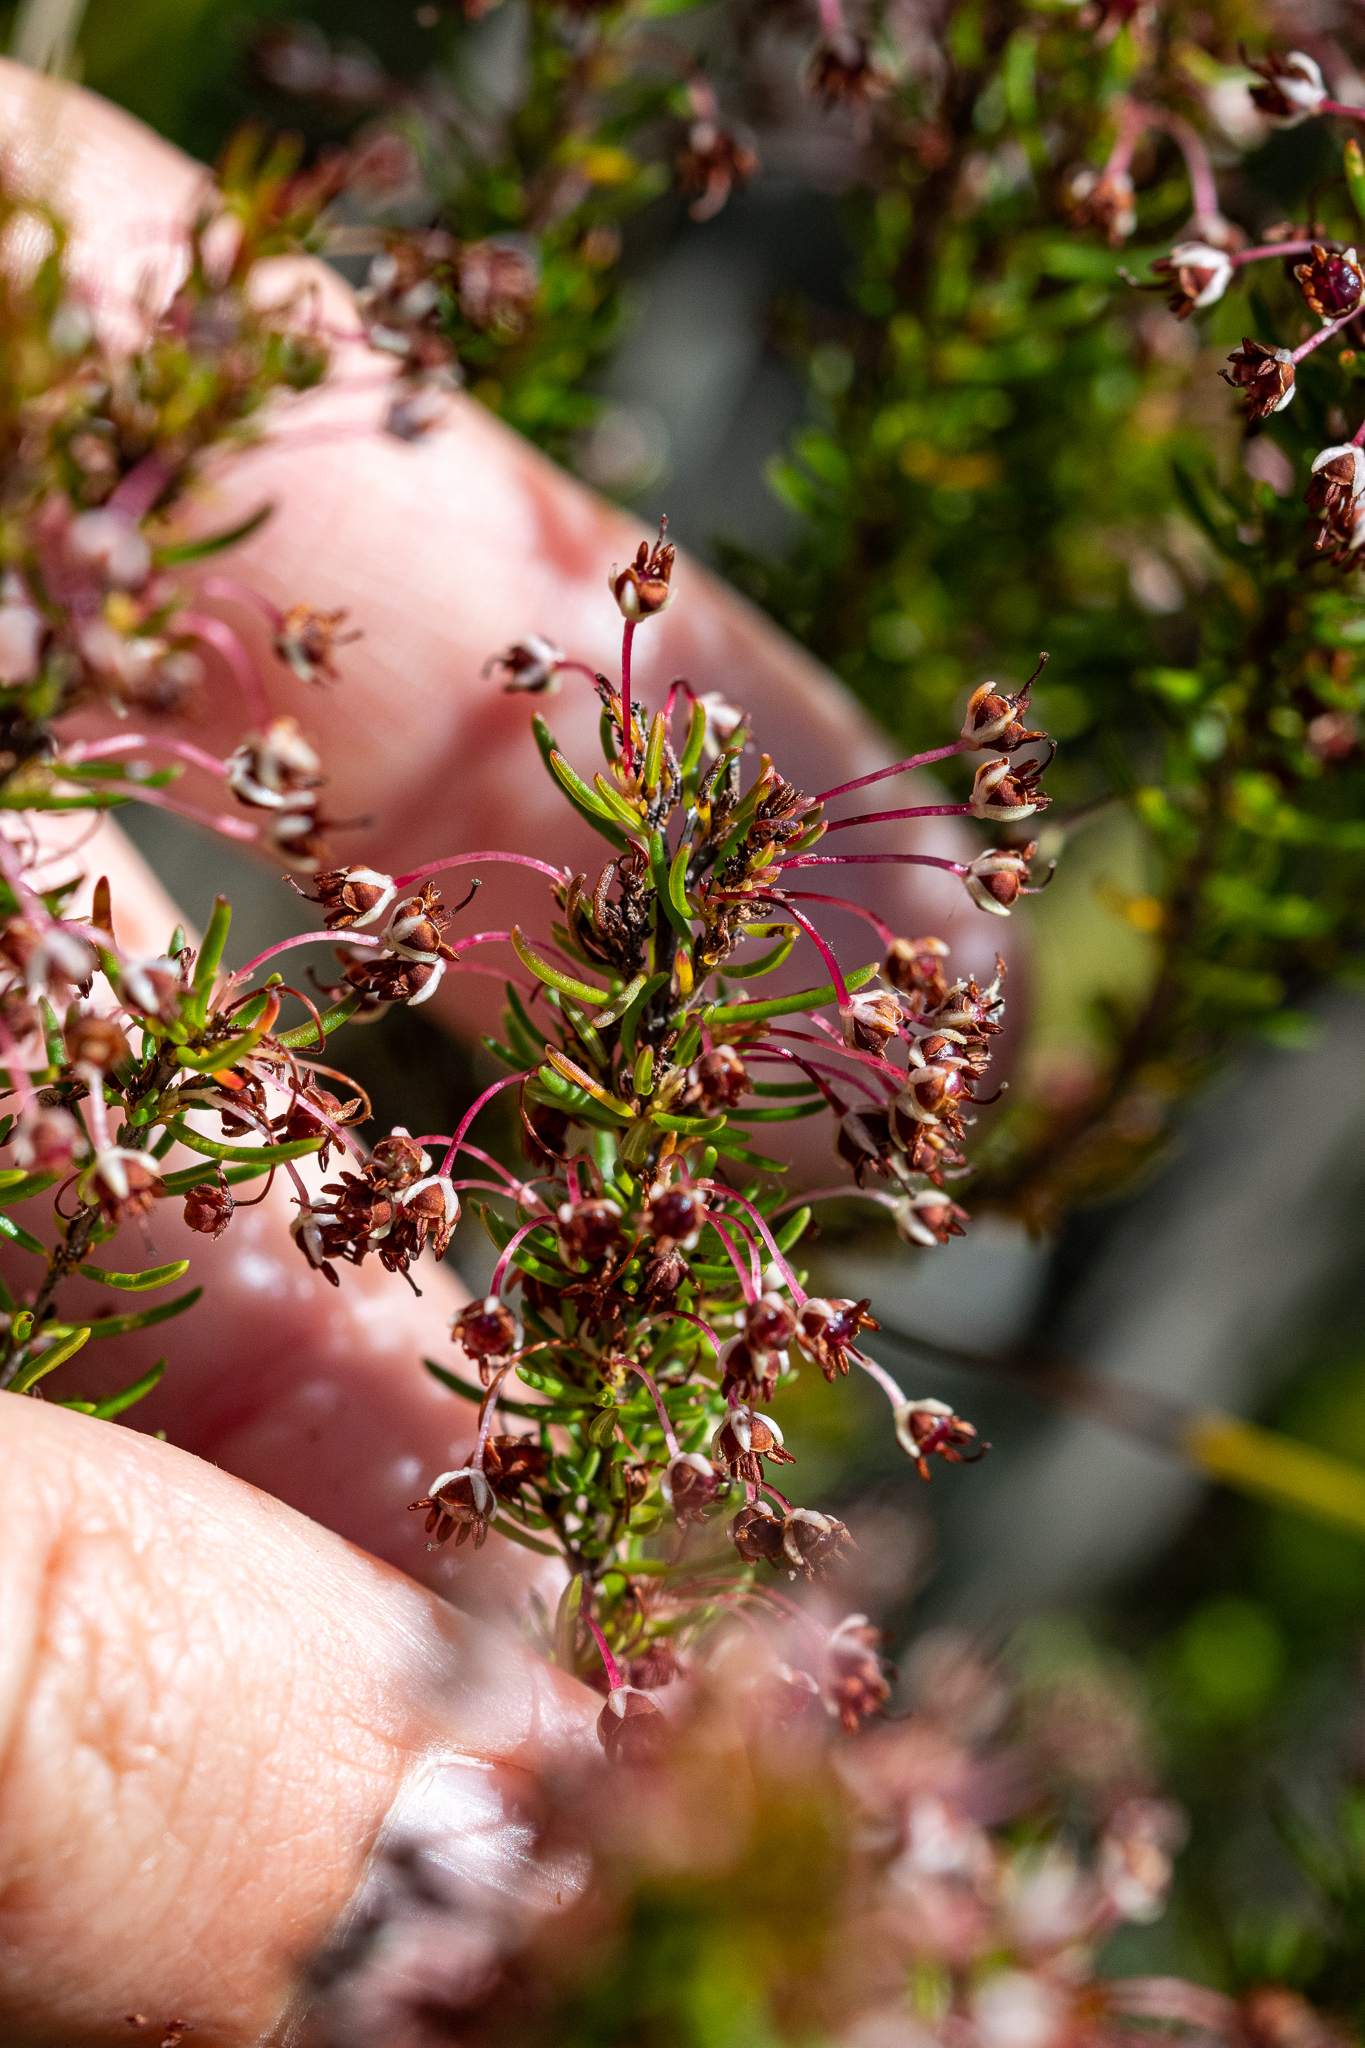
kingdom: Plantae
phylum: Tracheophyta
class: Magnoliopsida
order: Ericales
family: Ericaceae
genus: Erica
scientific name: Erica rubiginosa
